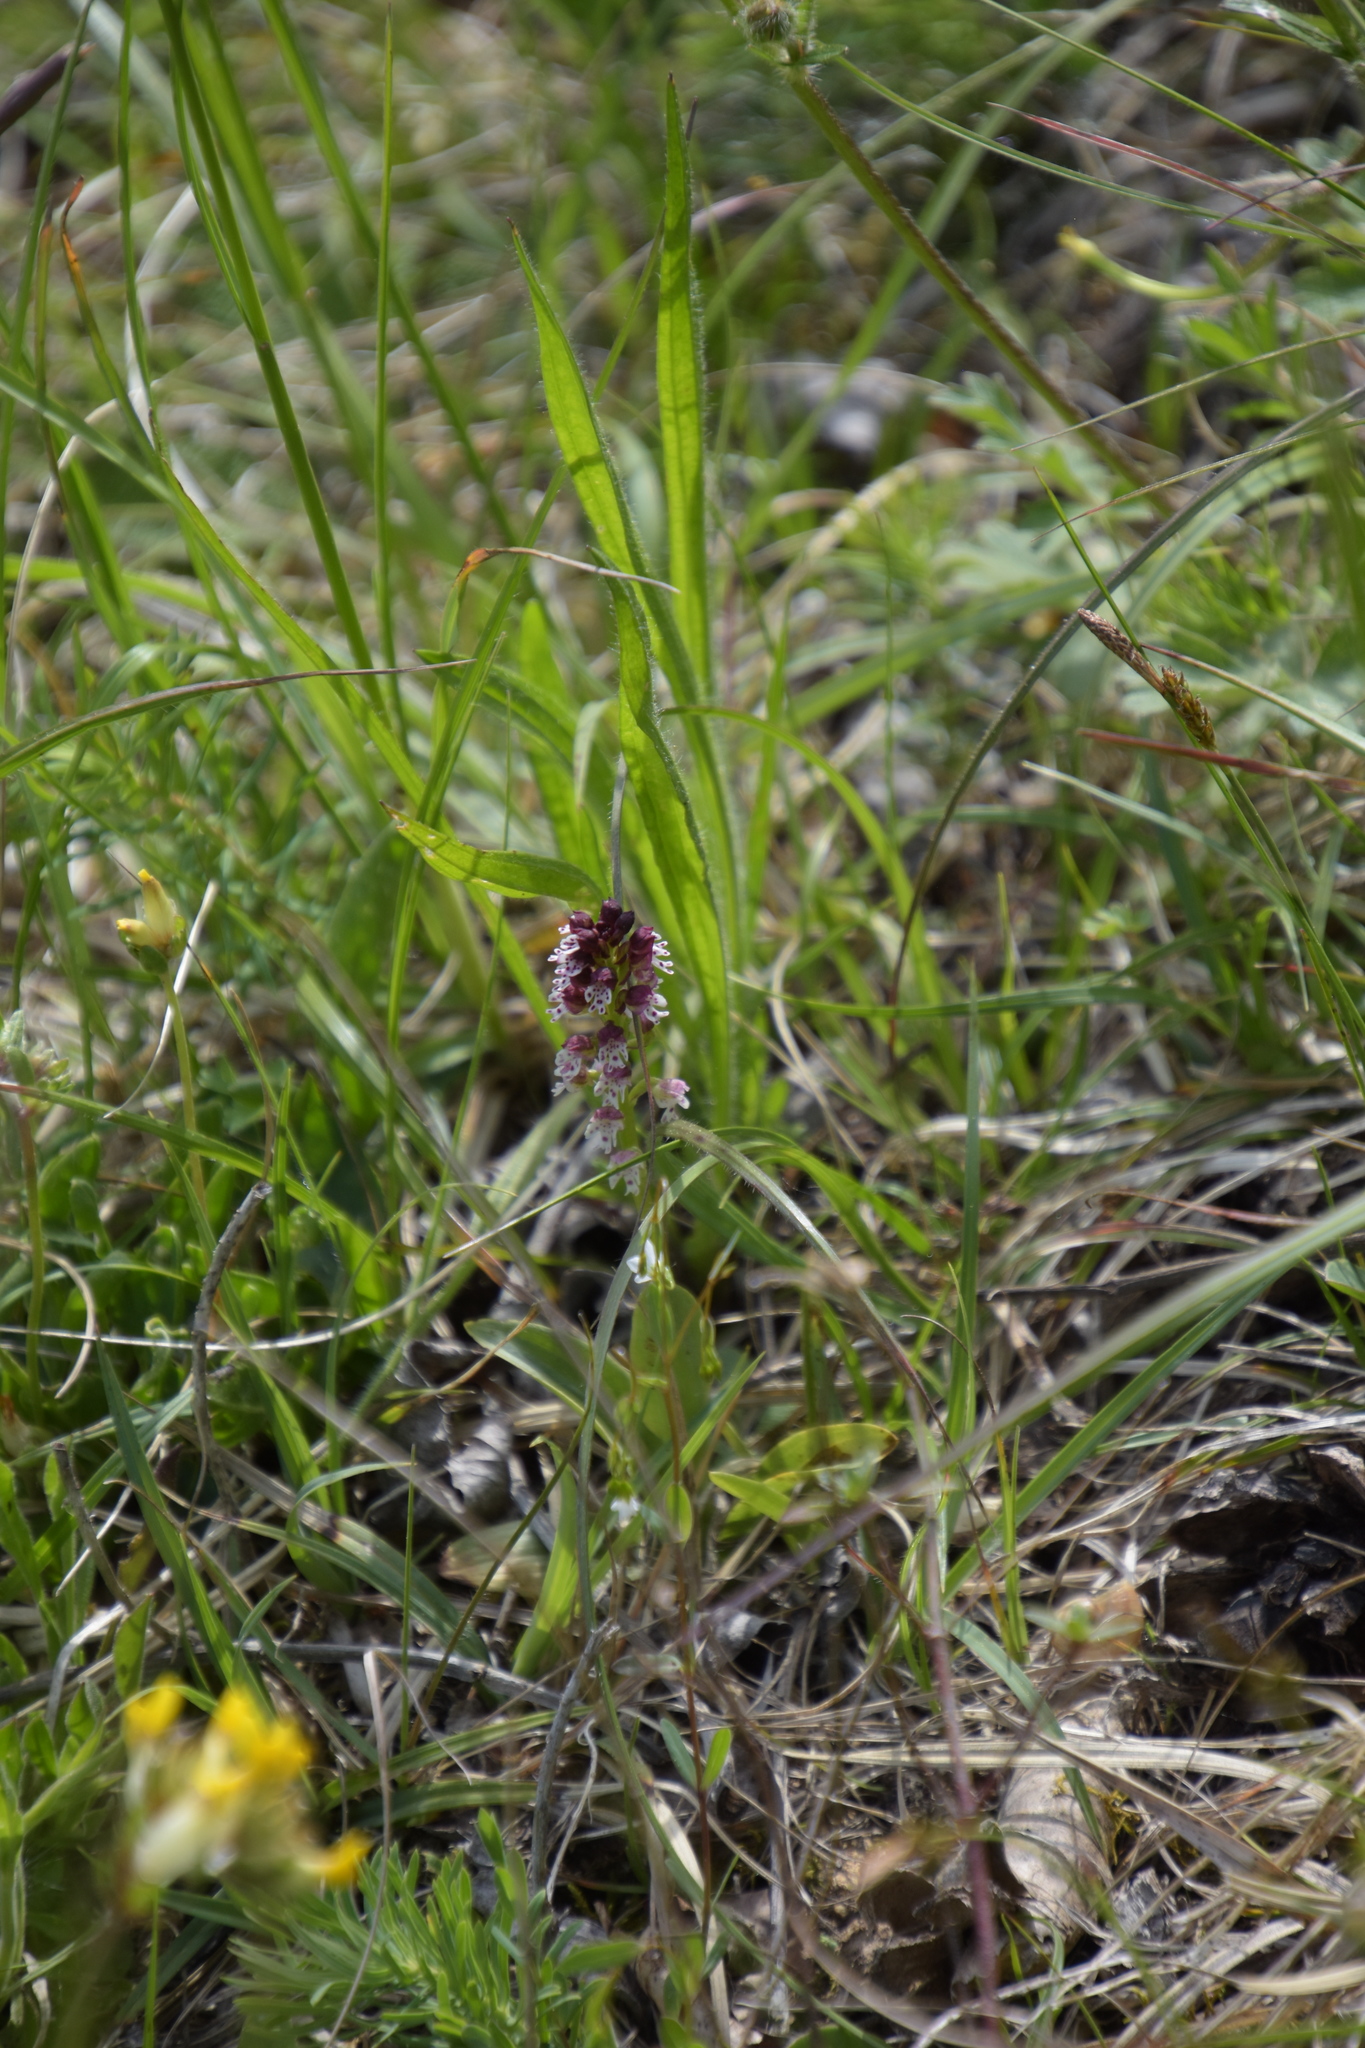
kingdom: Plantae
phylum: Tracheophyta
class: Liliopsida
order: Asparagales
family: Orchidaceae
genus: Neotinea
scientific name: Neotinea ustulata
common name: Burnt orchid
